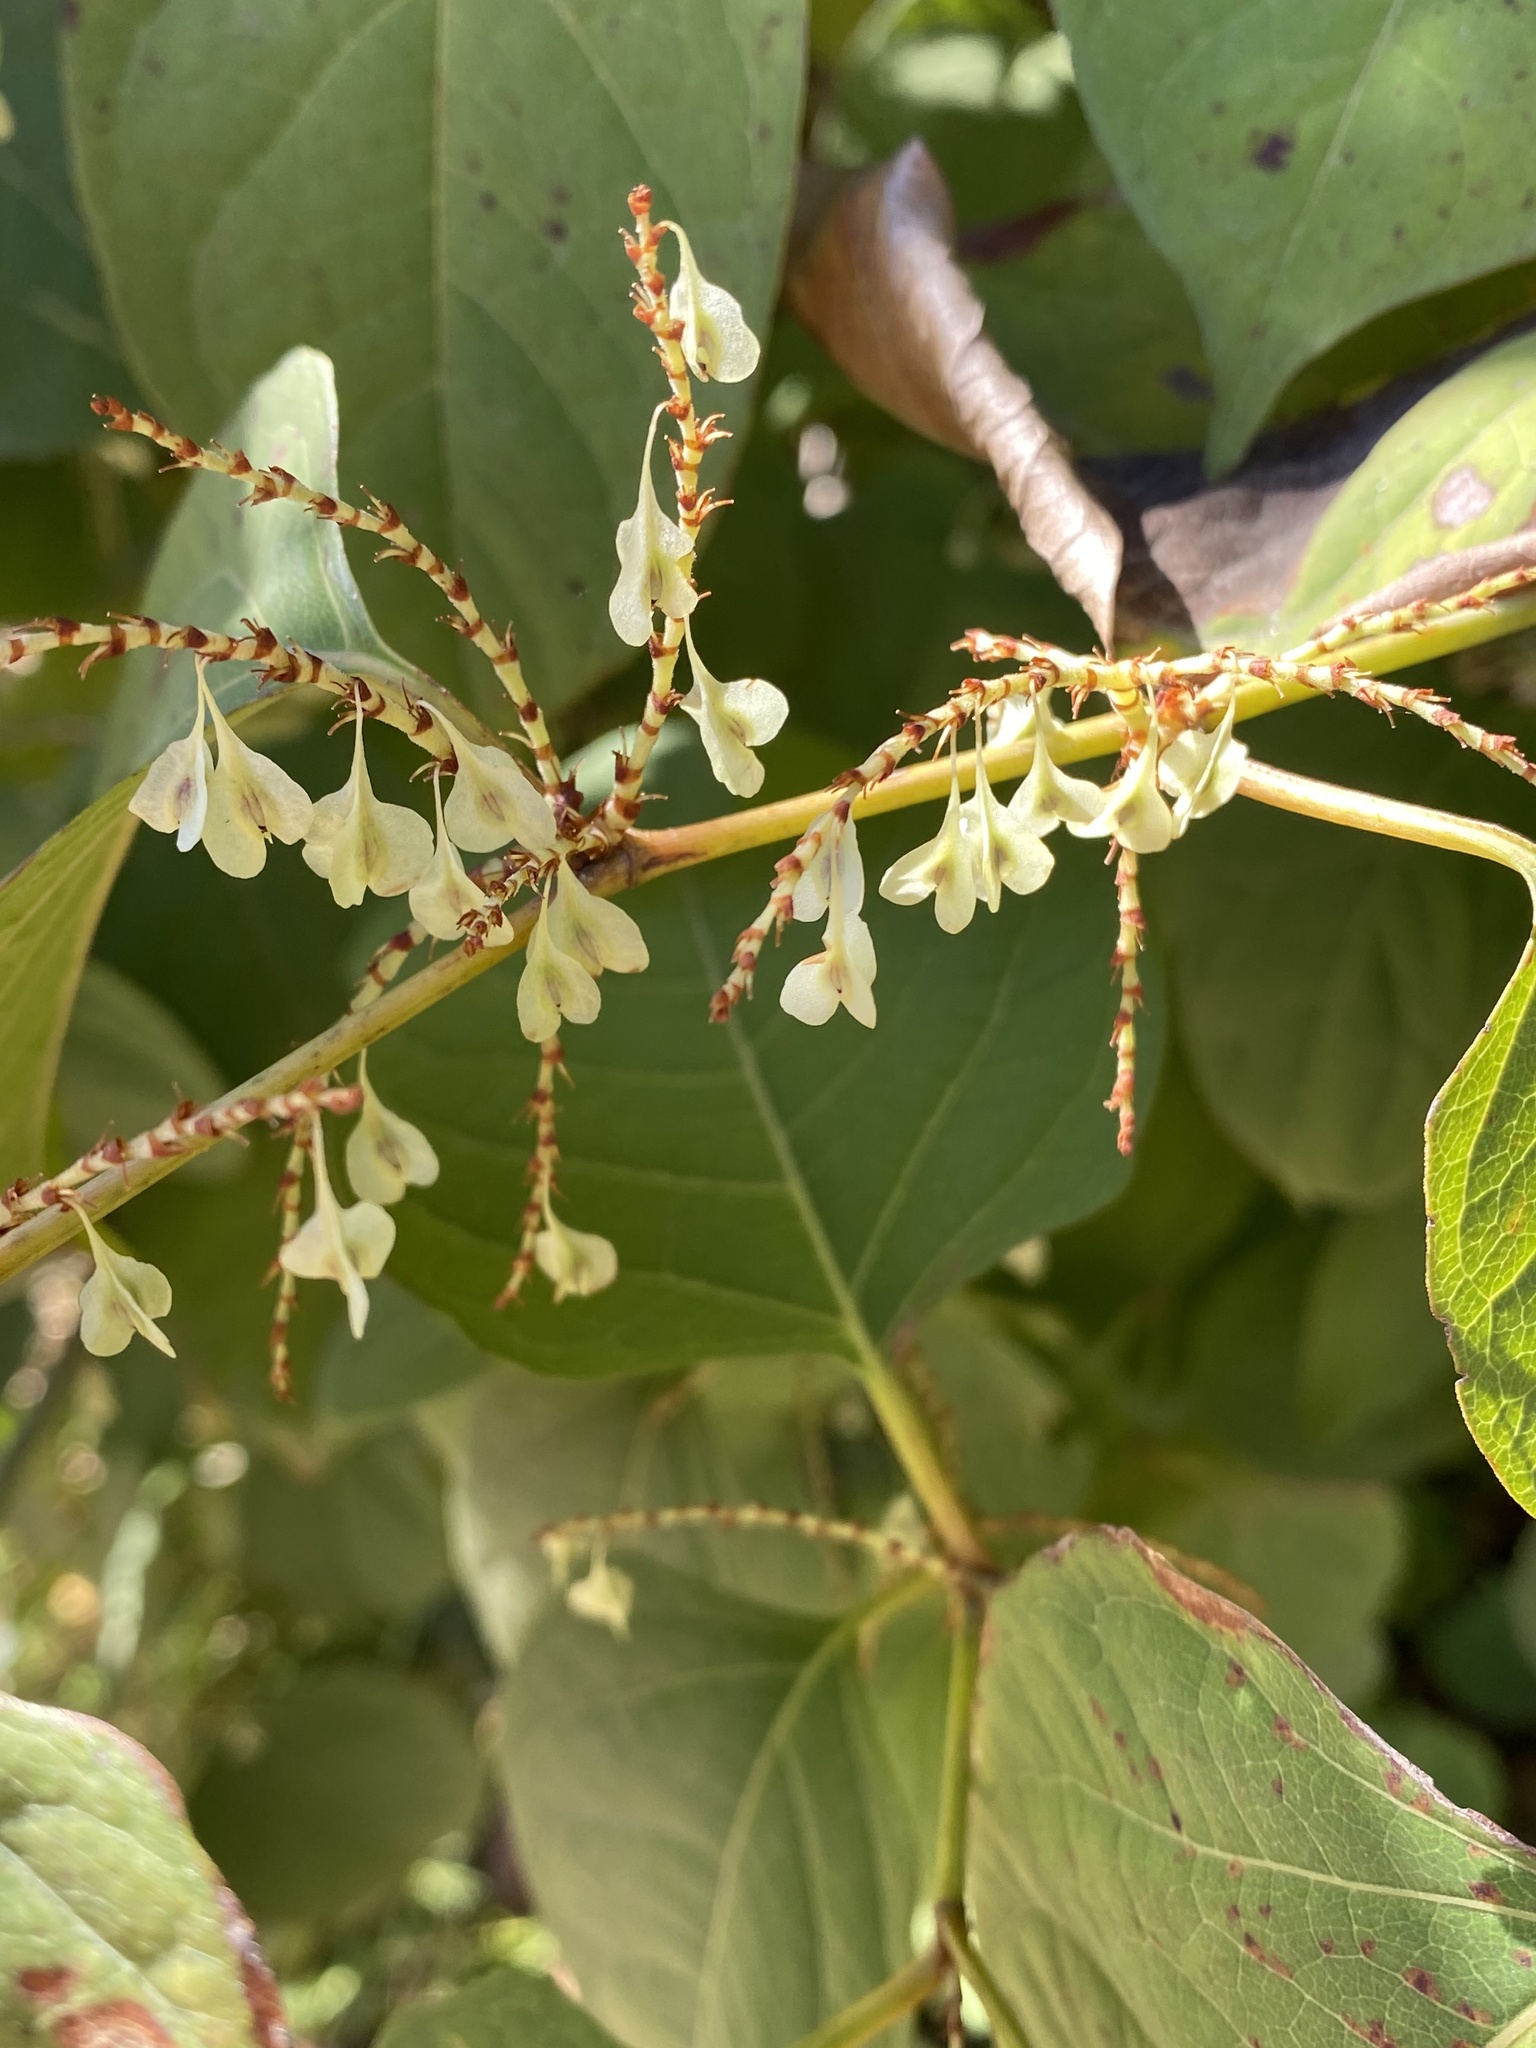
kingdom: Plantae
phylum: Tracheophyta
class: Magnoliopsida
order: Caryophyllales
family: Polygonaceae
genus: Reynoutria
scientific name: Reynoutria japonica
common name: Japanese knotweed
